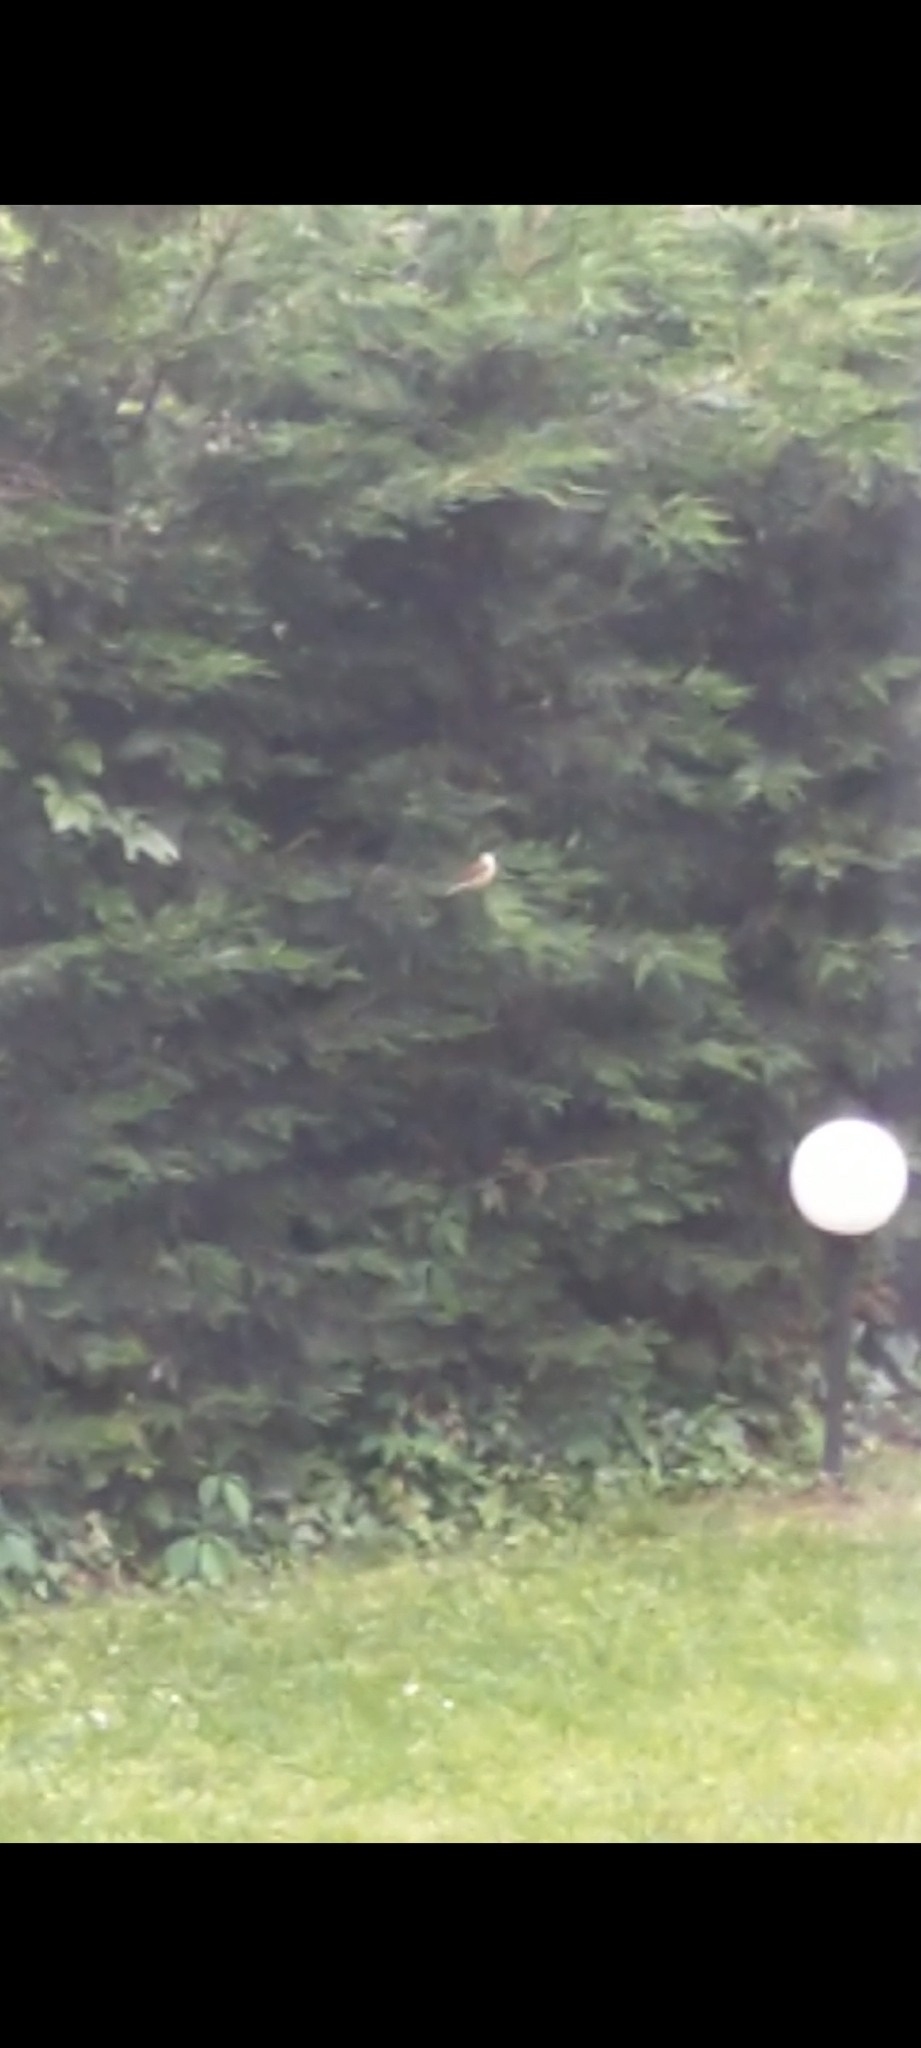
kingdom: Animalia
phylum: Chordata
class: Aves
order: Passeriformes
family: Laniidae
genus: Lanius
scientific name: Lanius collurio
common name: Red-backed shrike
